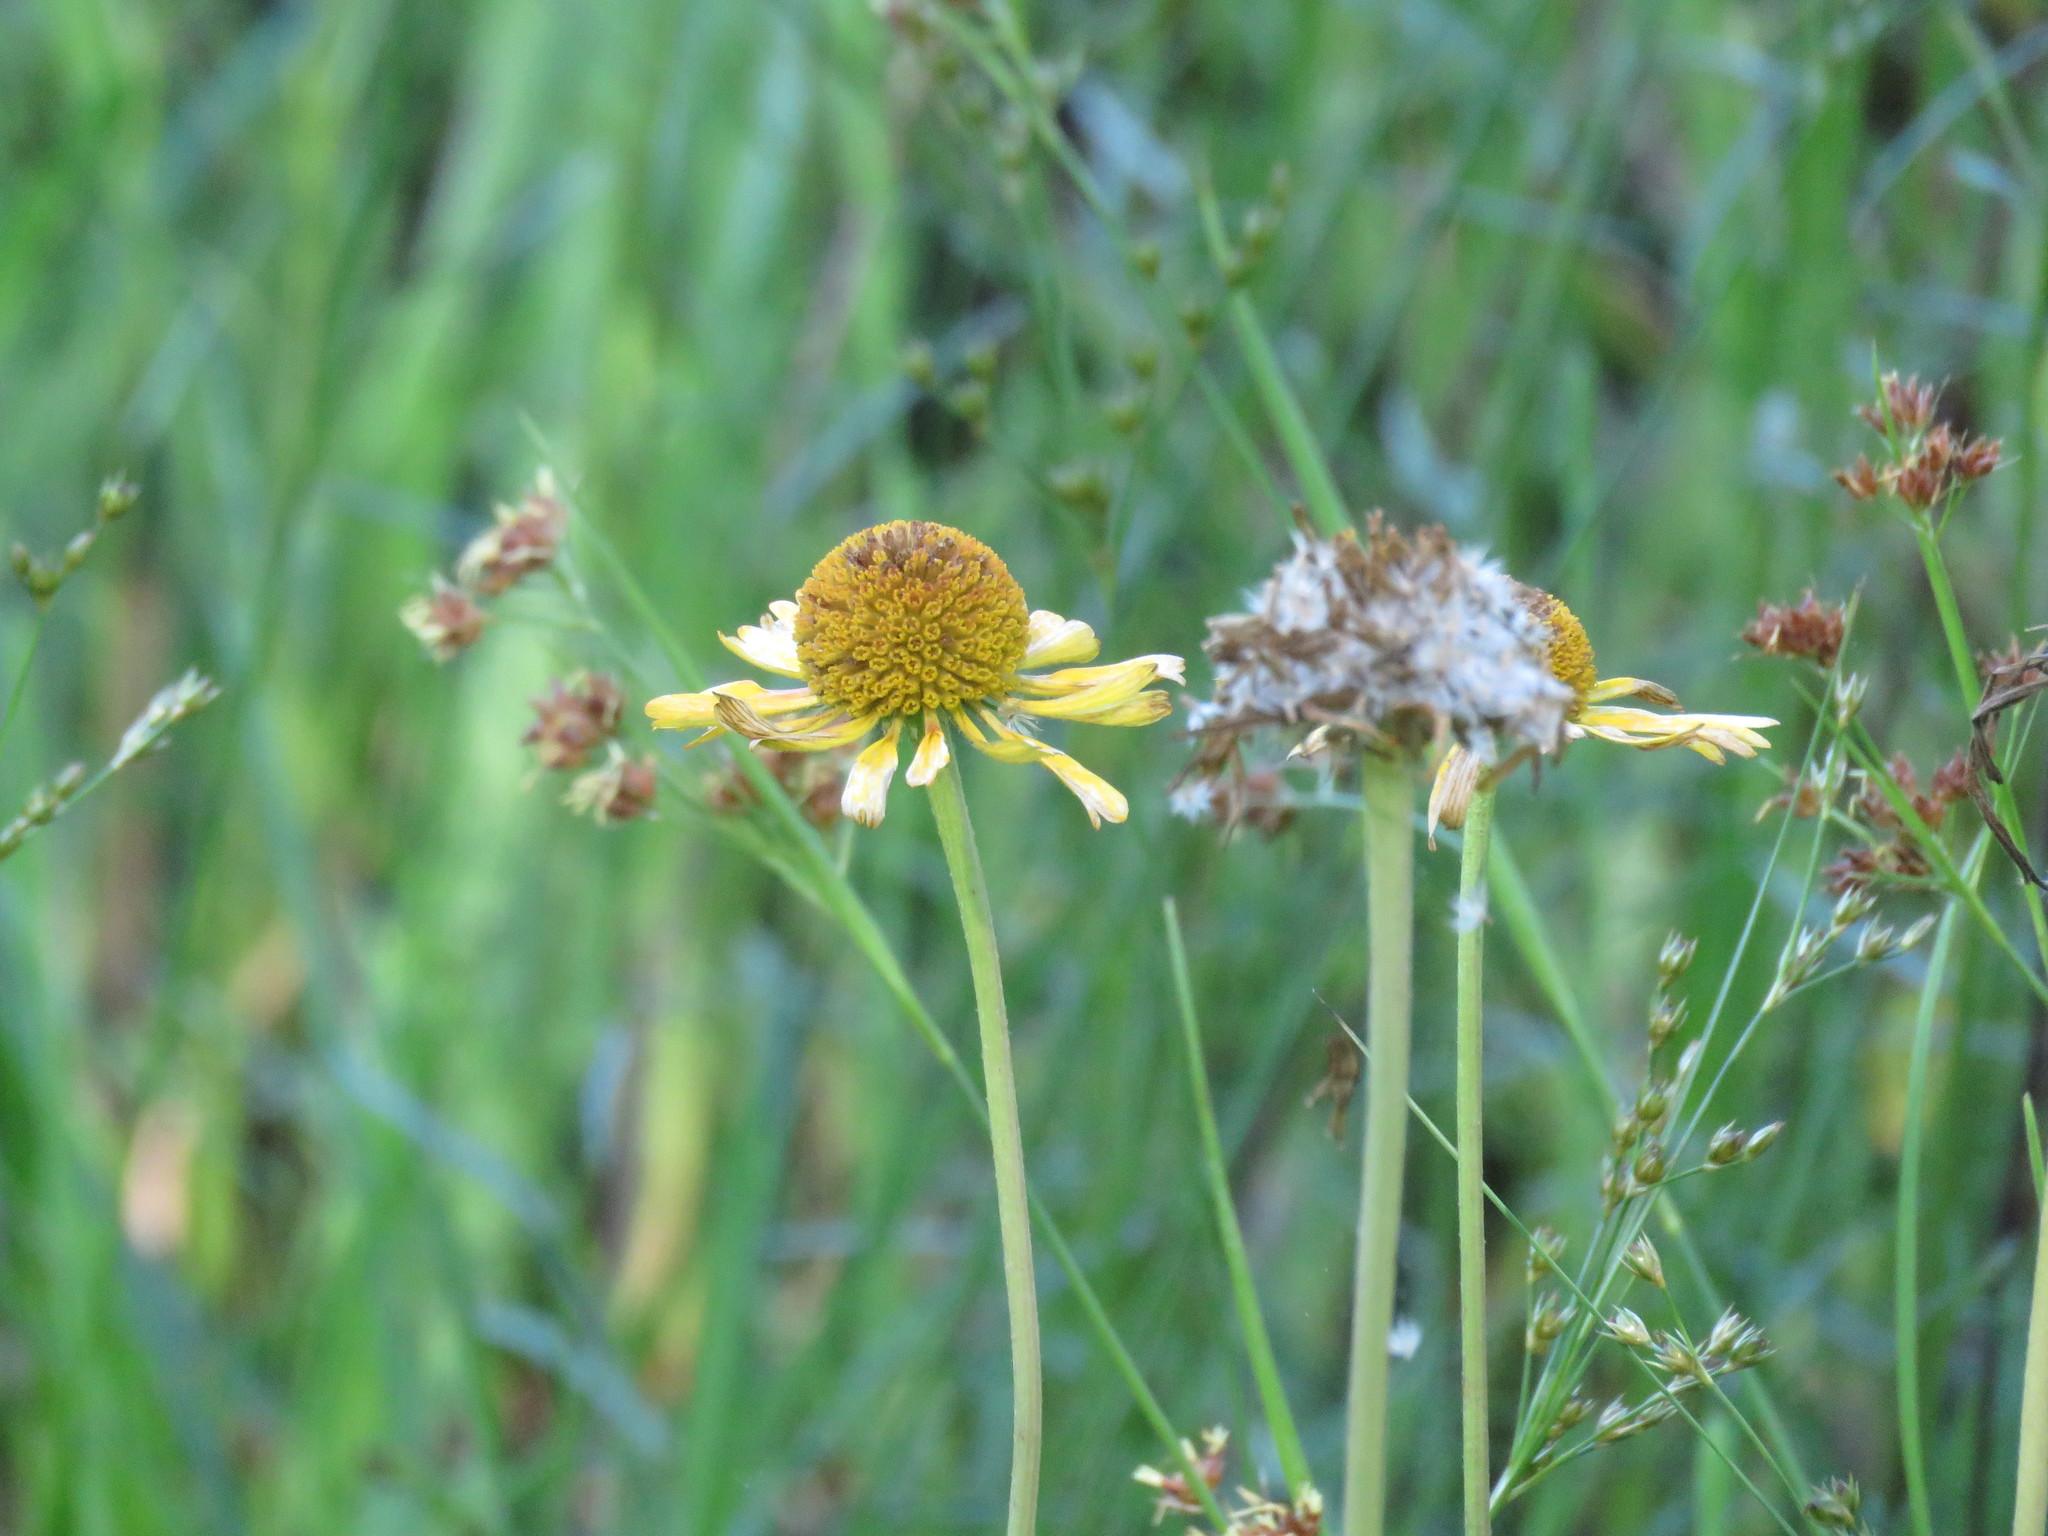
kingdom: Plantae
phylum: Tracheophyta
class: Magnoliopsida
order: Asterales
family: Asteraceae
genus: Helenium
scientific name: Helenium drummondii
